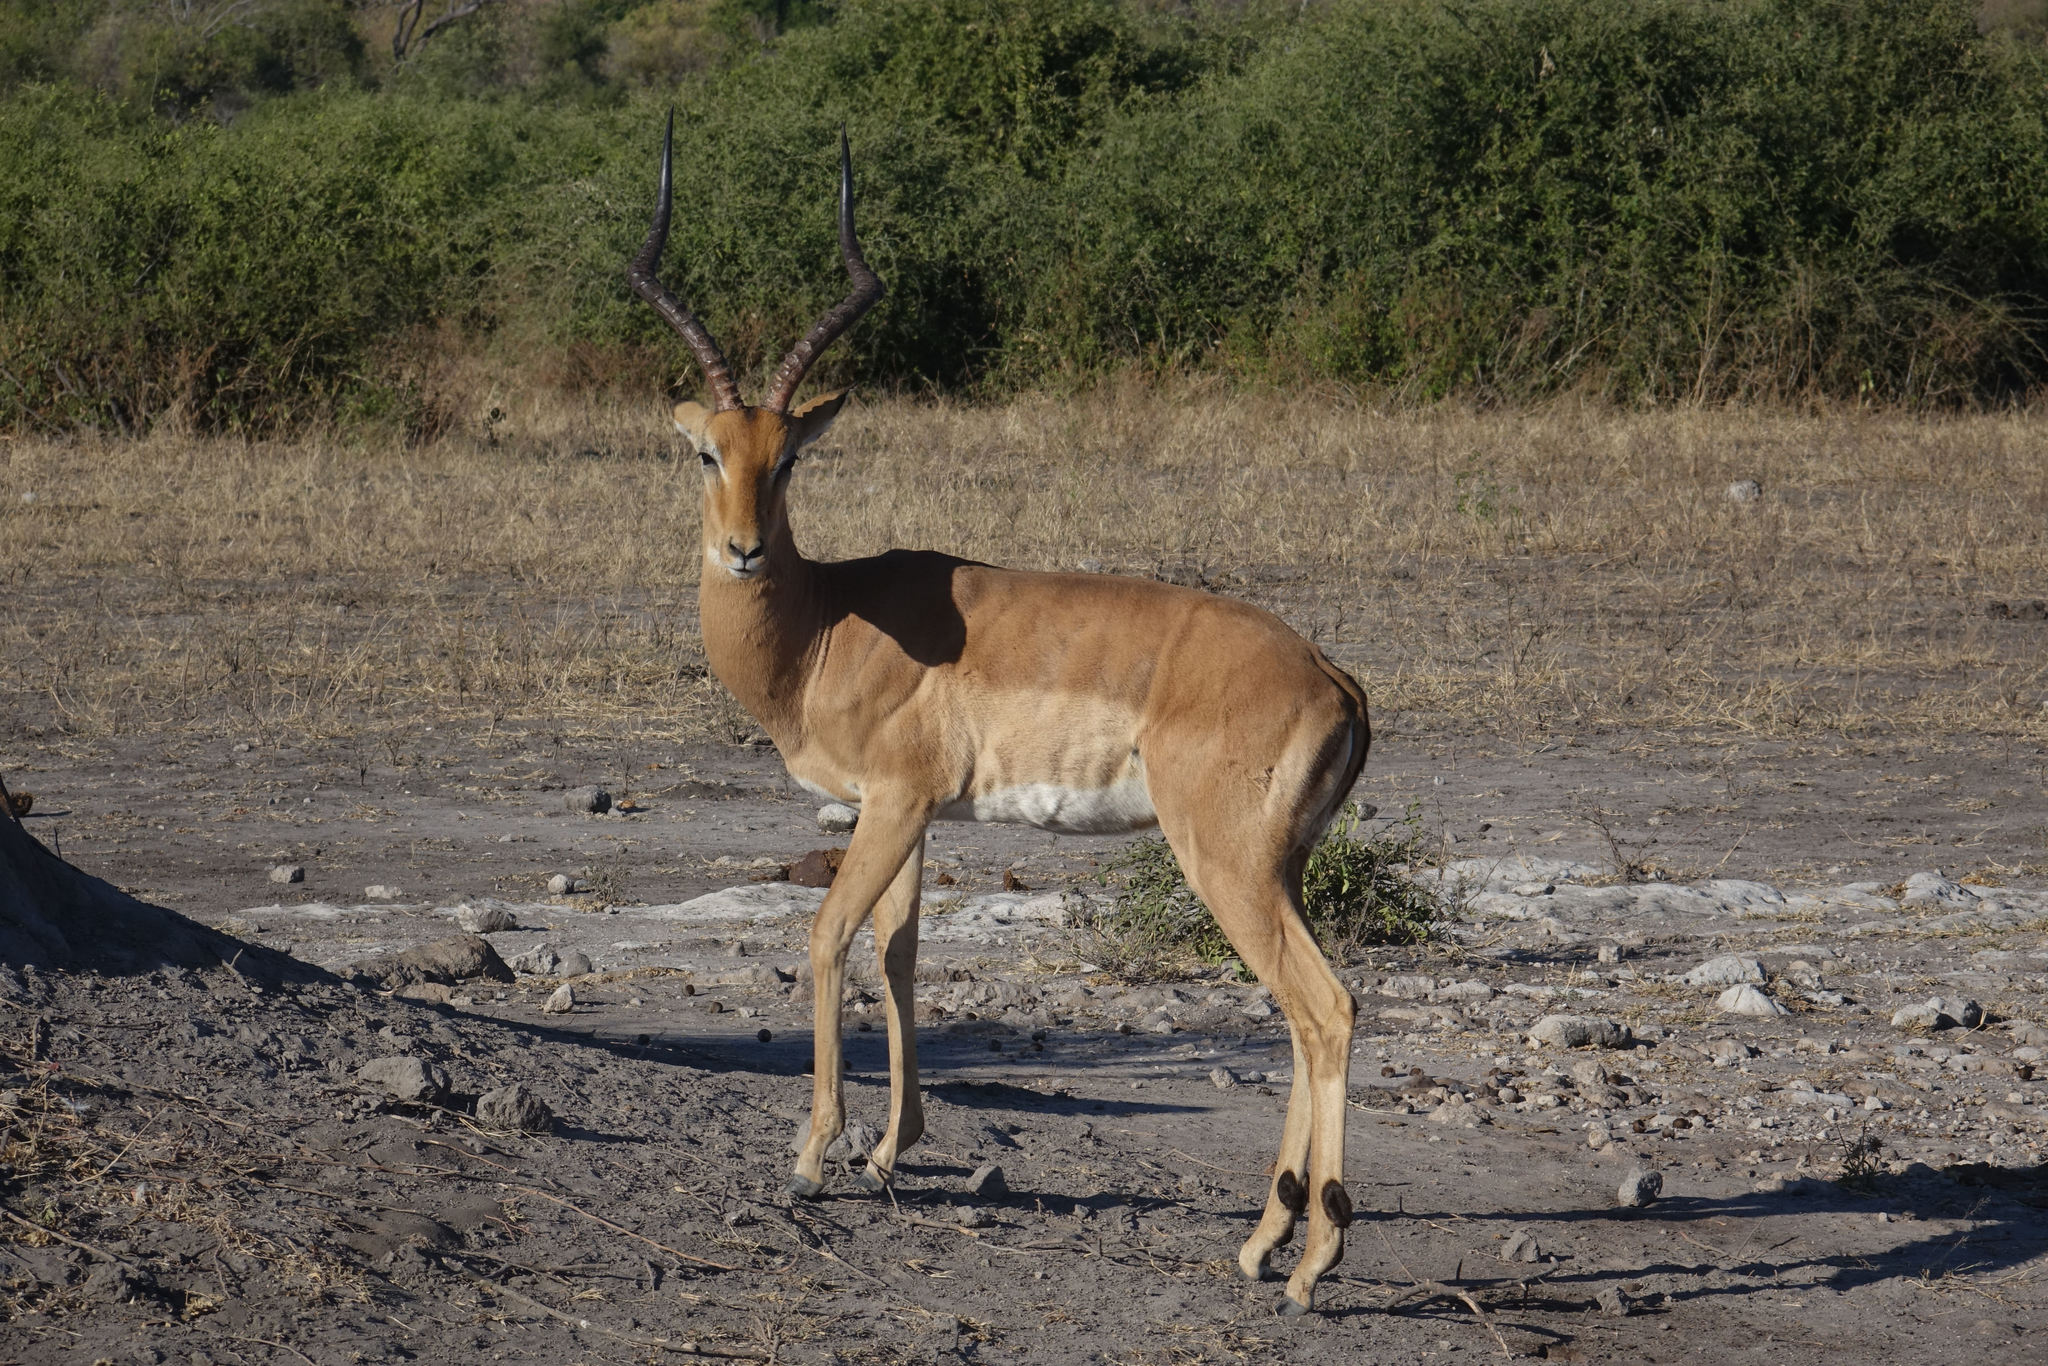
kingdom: Animalia
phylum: Chordata
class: Mammalia
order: Artiodactyla
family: Bovidae
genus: Aepyceros
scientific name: Aepyceros melampus
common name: Impala
